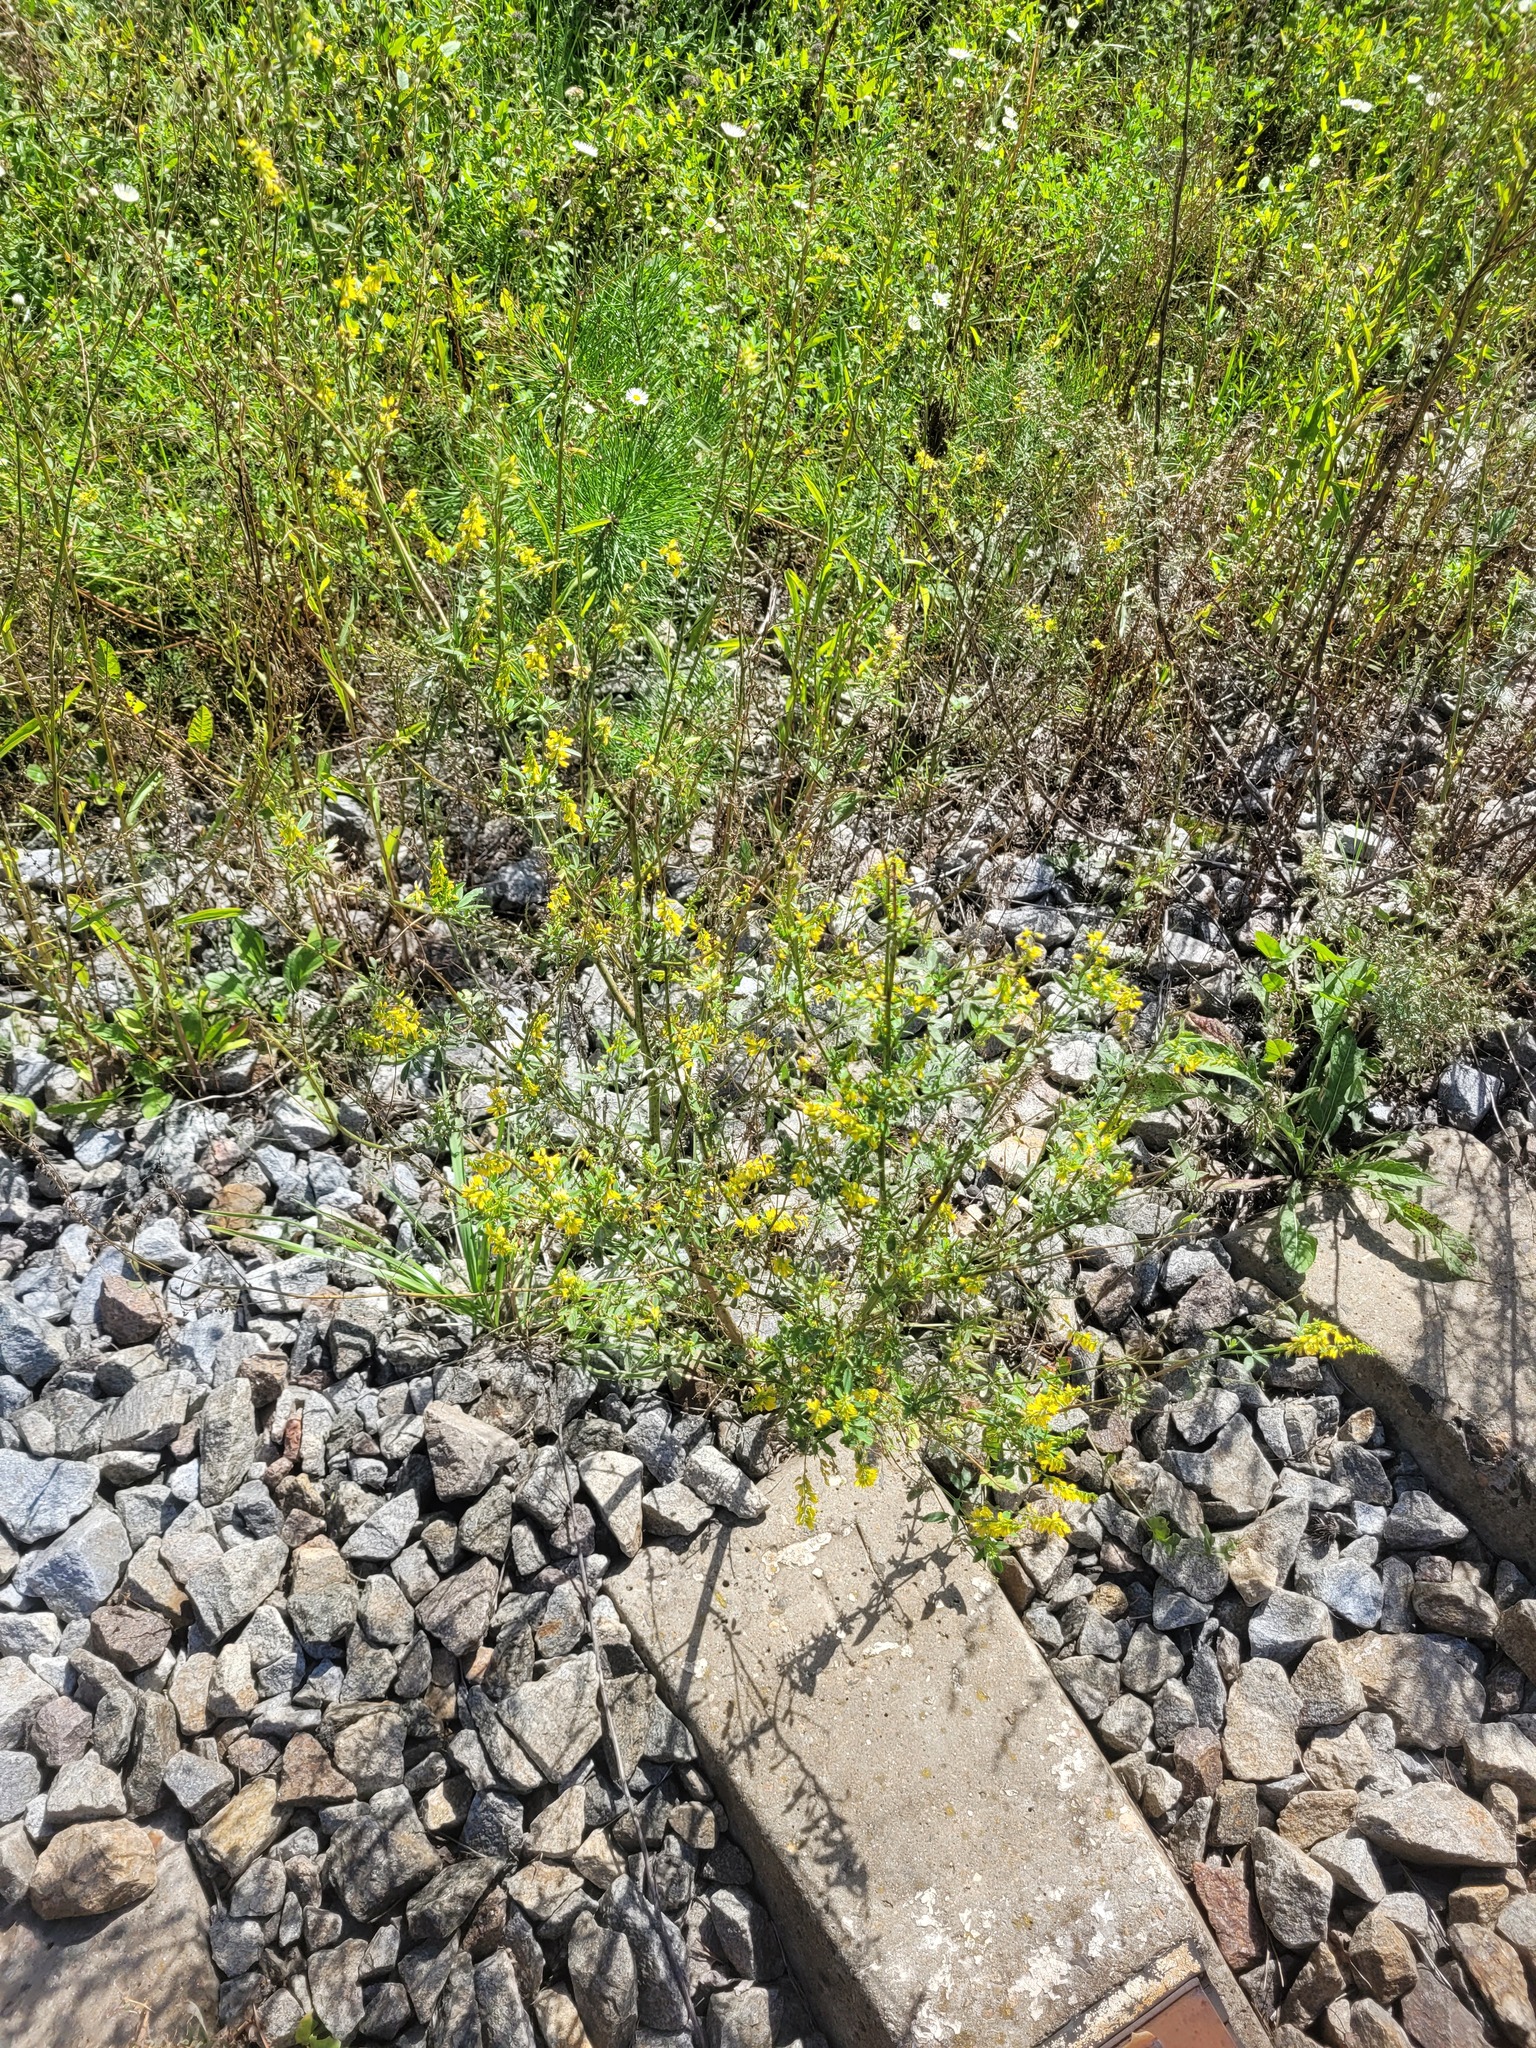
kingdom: Plantae
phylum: Tracheophyta
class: Magnoliopsida
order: Fabales
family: Fabaceae
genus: Melilotus
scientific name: Melilotus officinalis
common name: Sweetclover
